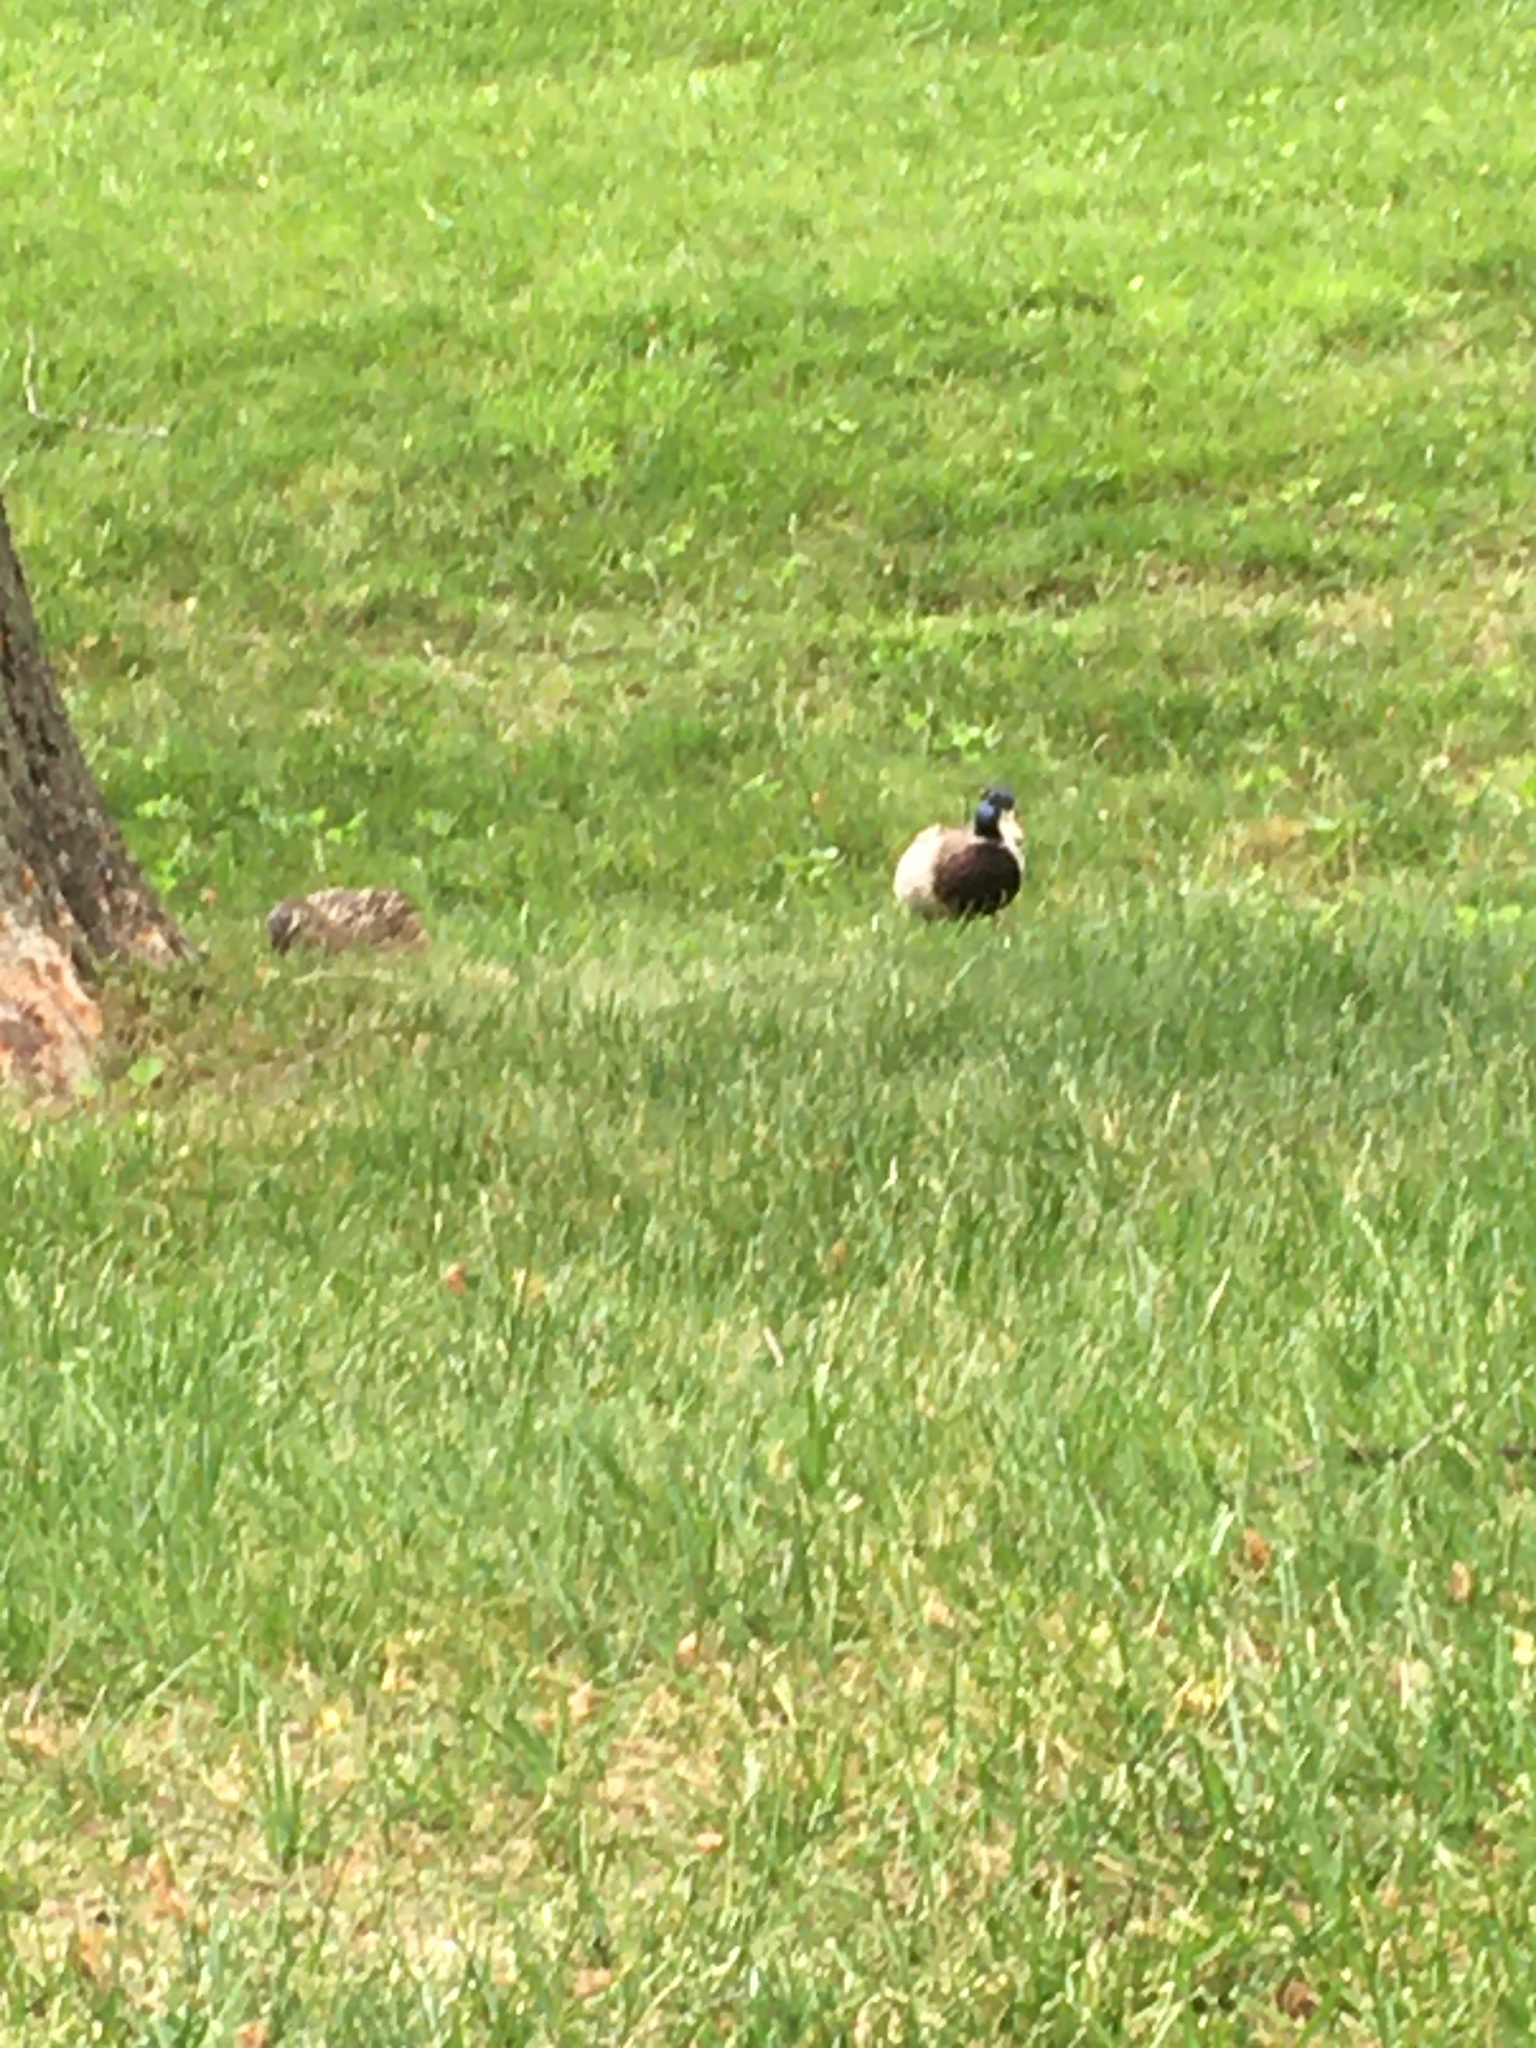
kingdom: Animalia
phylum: Chordata
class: Aves
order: Anseriformes
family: Anatidae
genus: Anas
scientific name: Anas platyrhynchos
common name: Mallard
